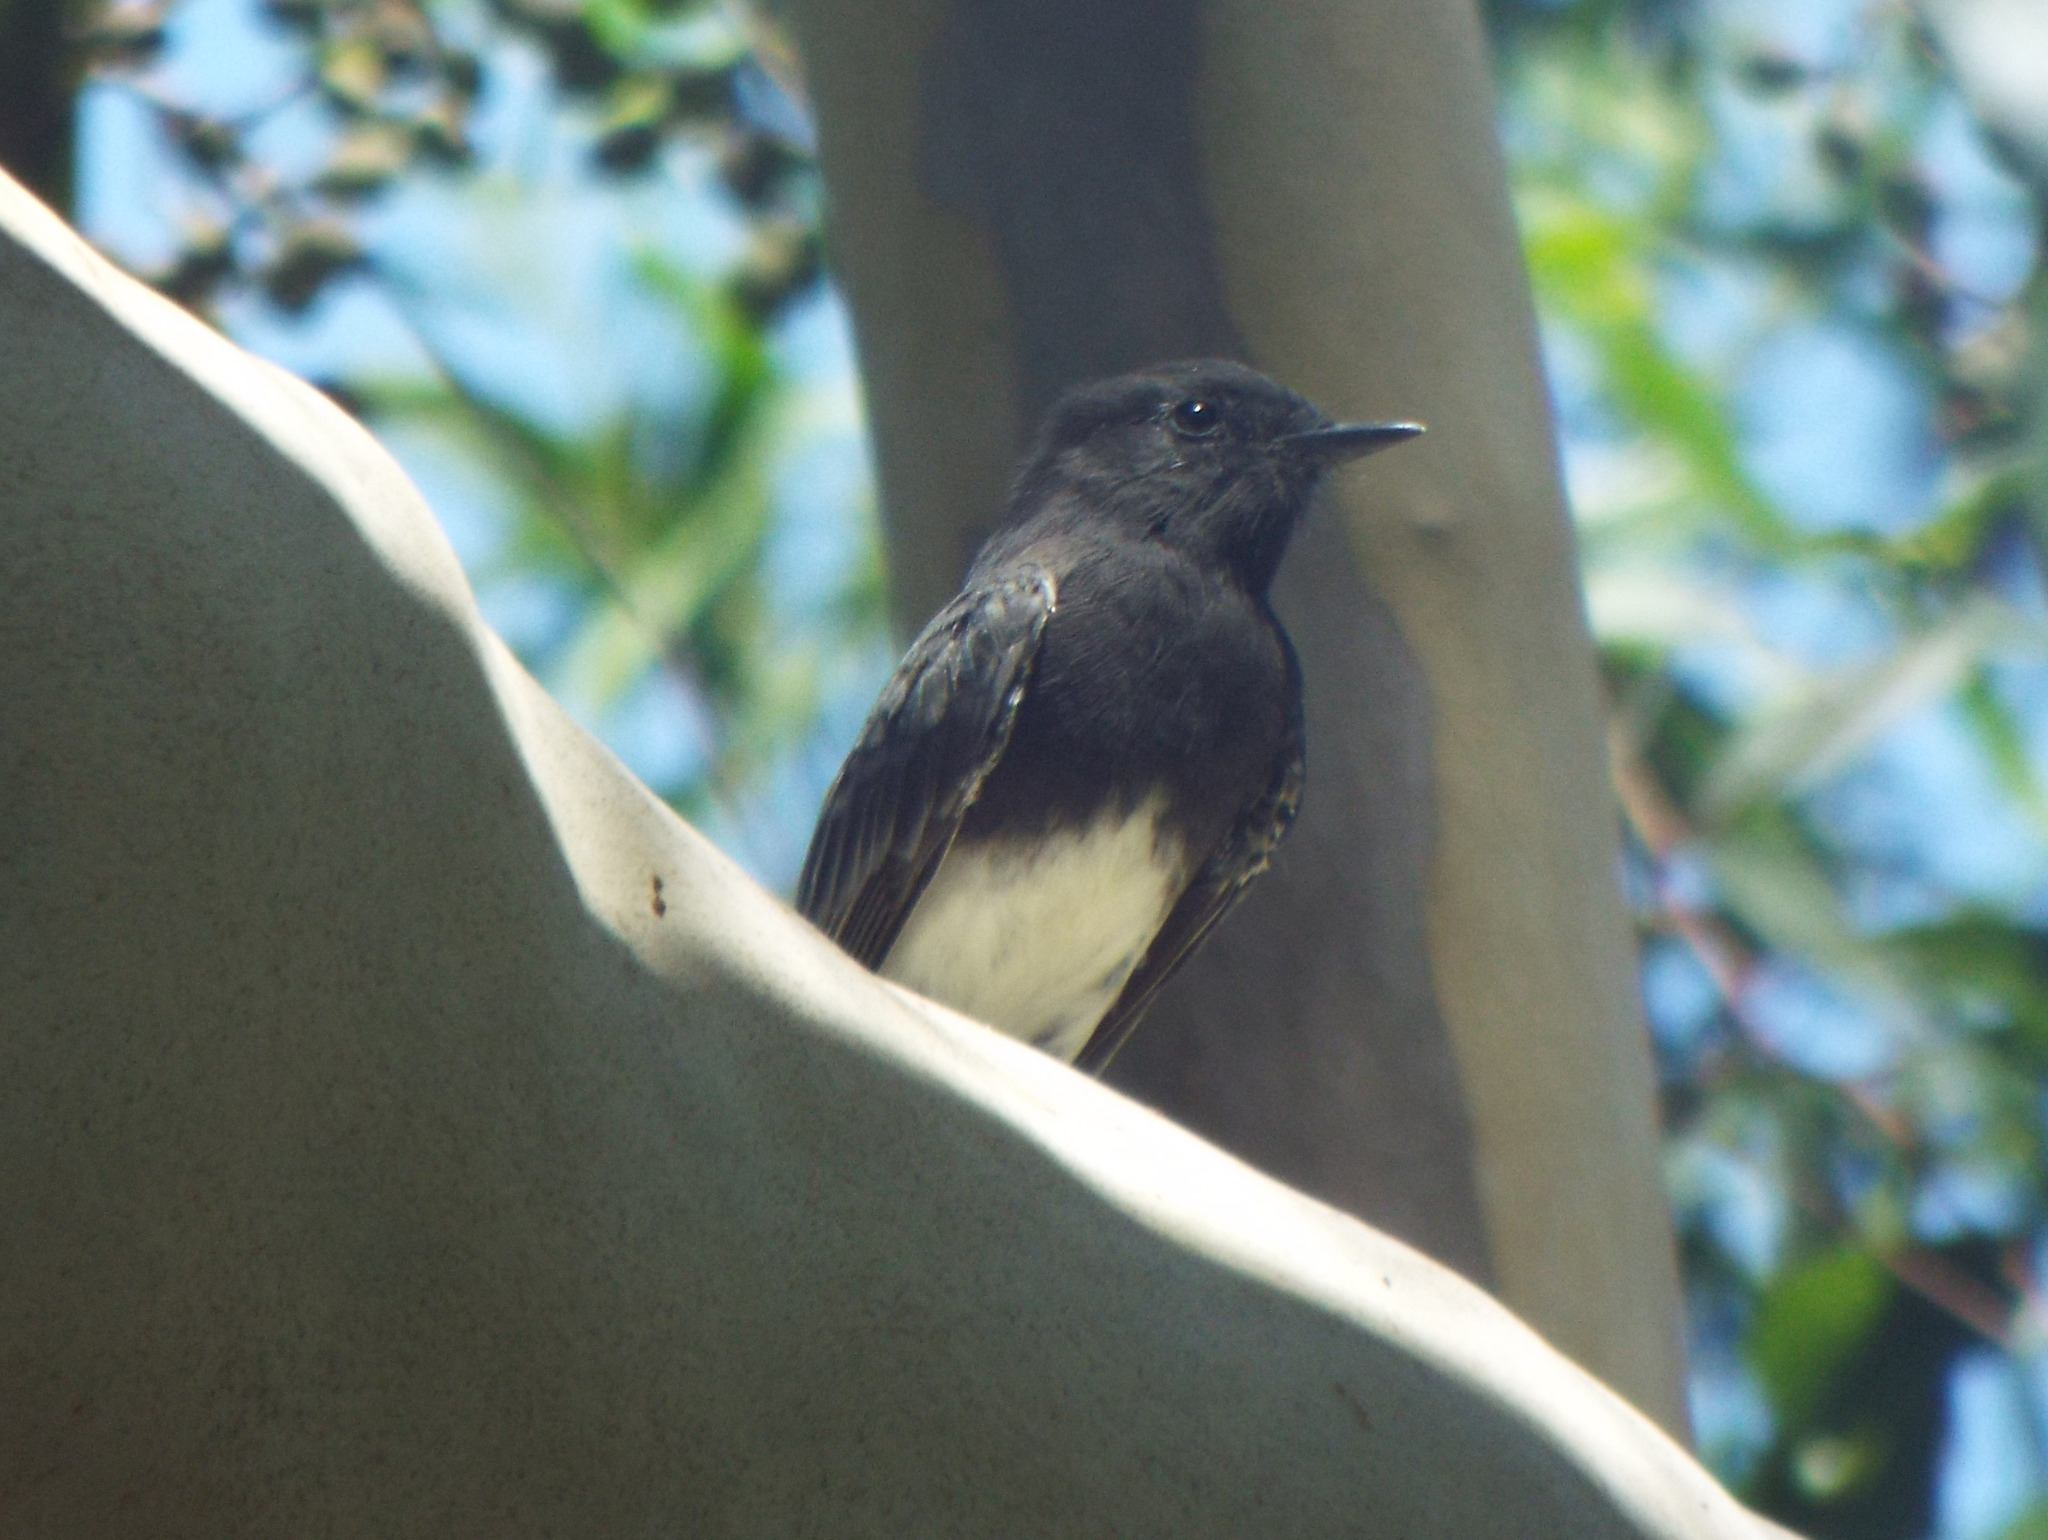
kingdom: Animalia
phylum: Chordata
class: Aves
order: Passeriformes
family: Tyrannidae
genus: Sayornis
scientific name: Sayornis nigricans
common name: Black phoebe
